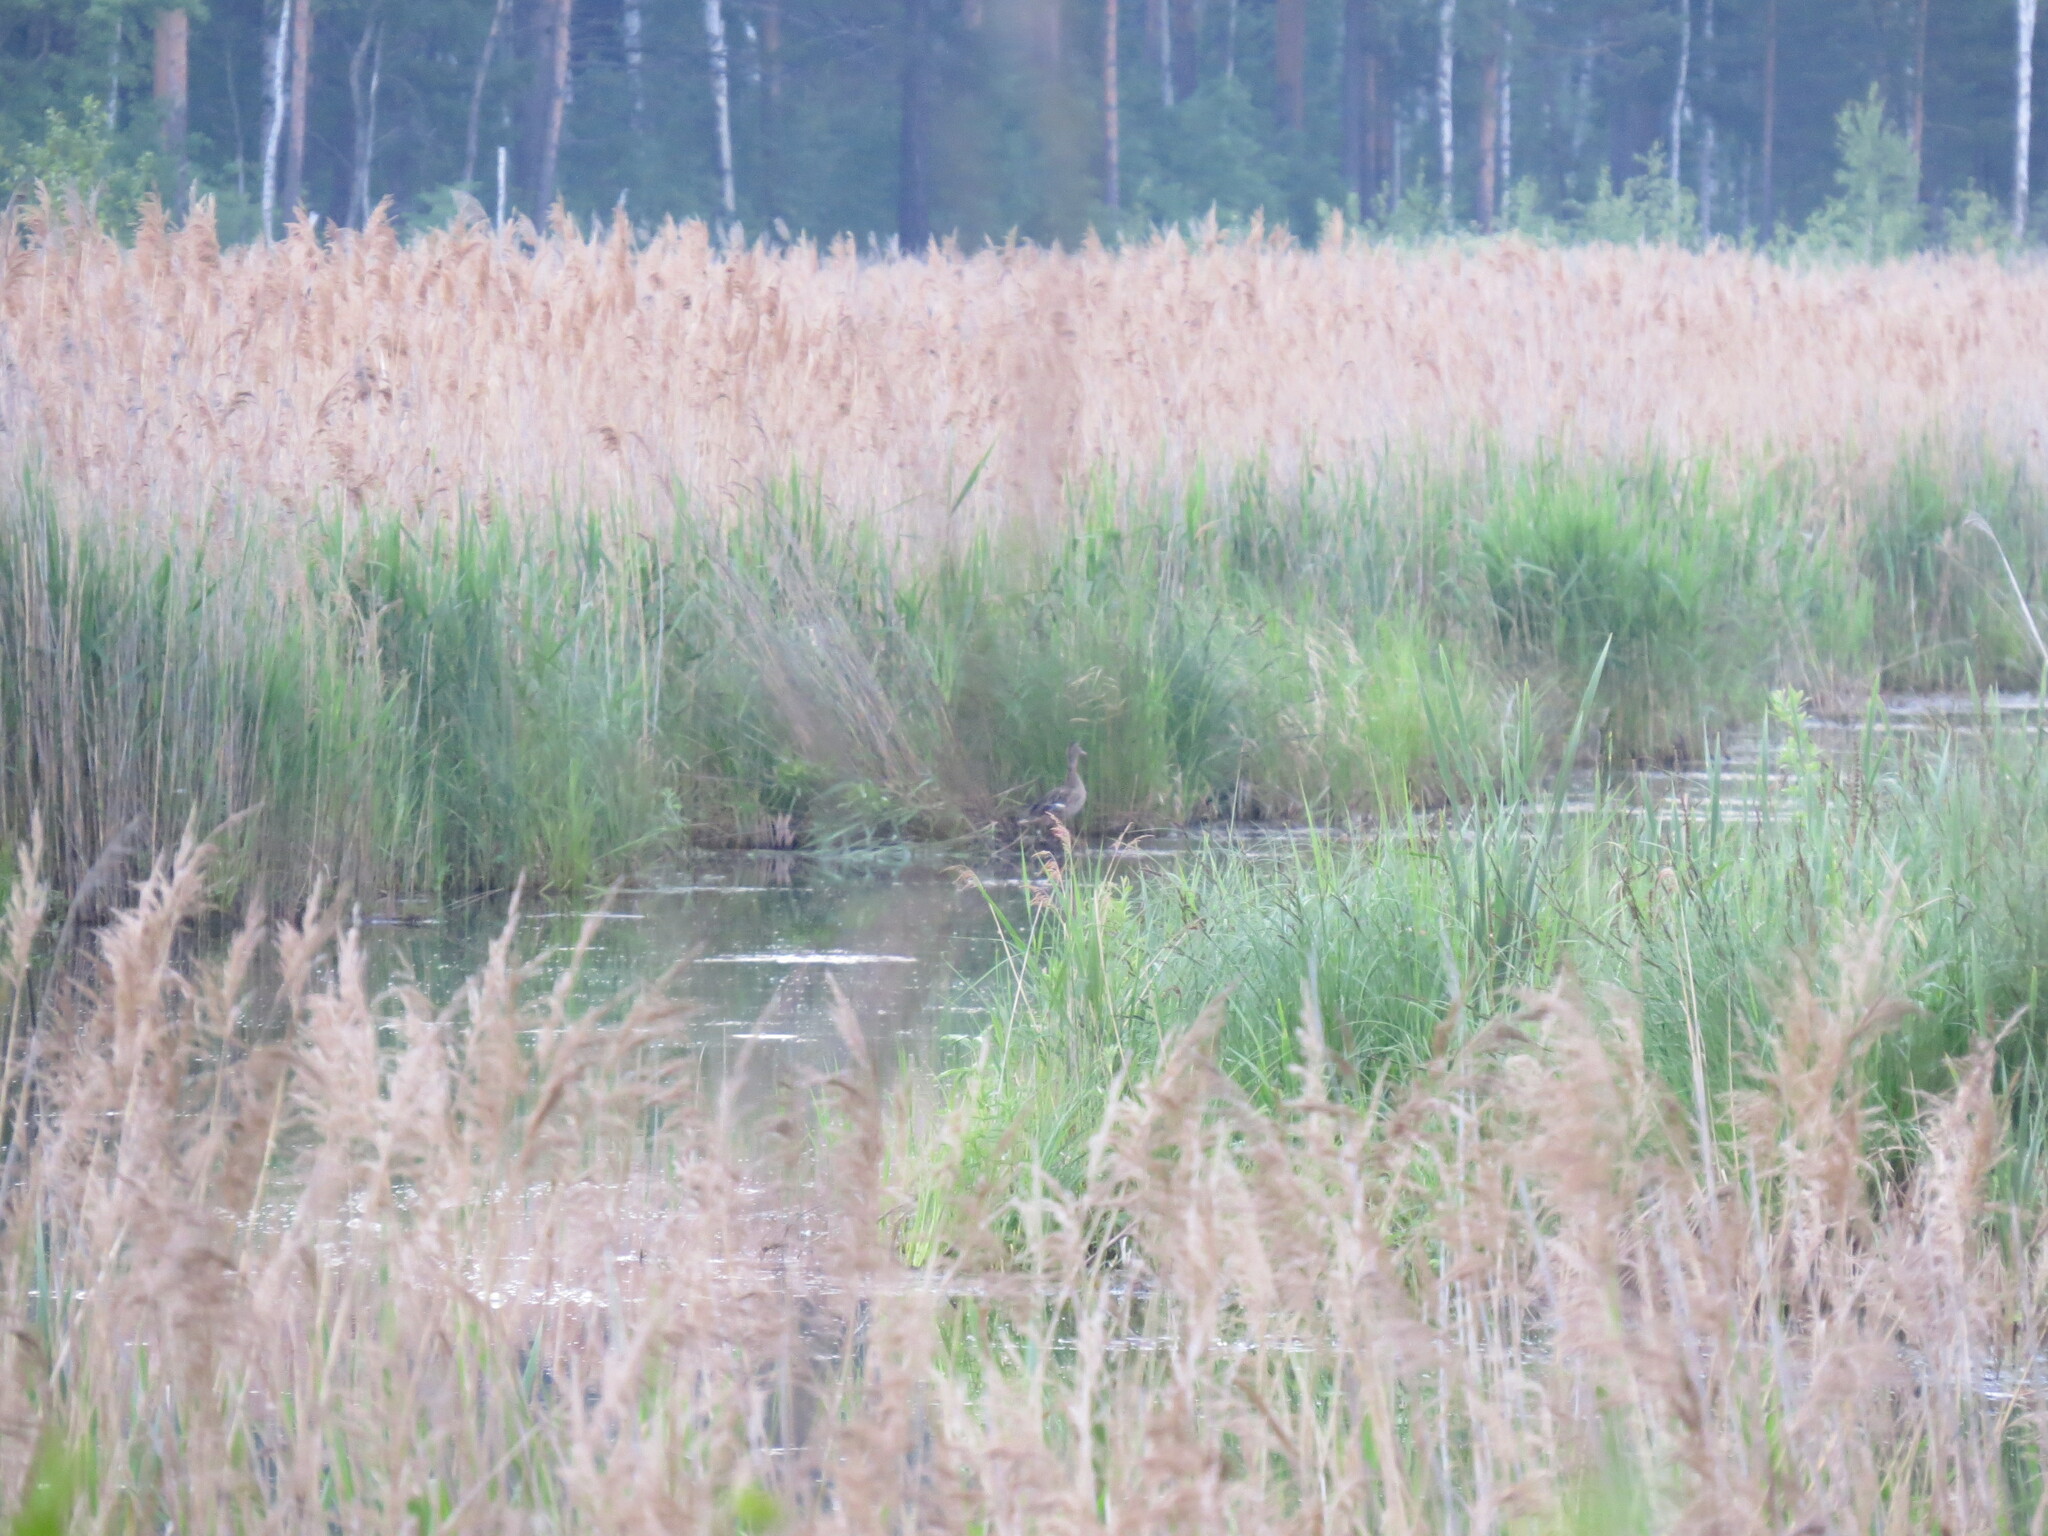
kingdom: Animalia
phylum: Chordata
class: Aves
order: Anseriformes
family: Anatidae
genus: Anas
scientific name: Anas platyrhynchos
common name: Mallard
